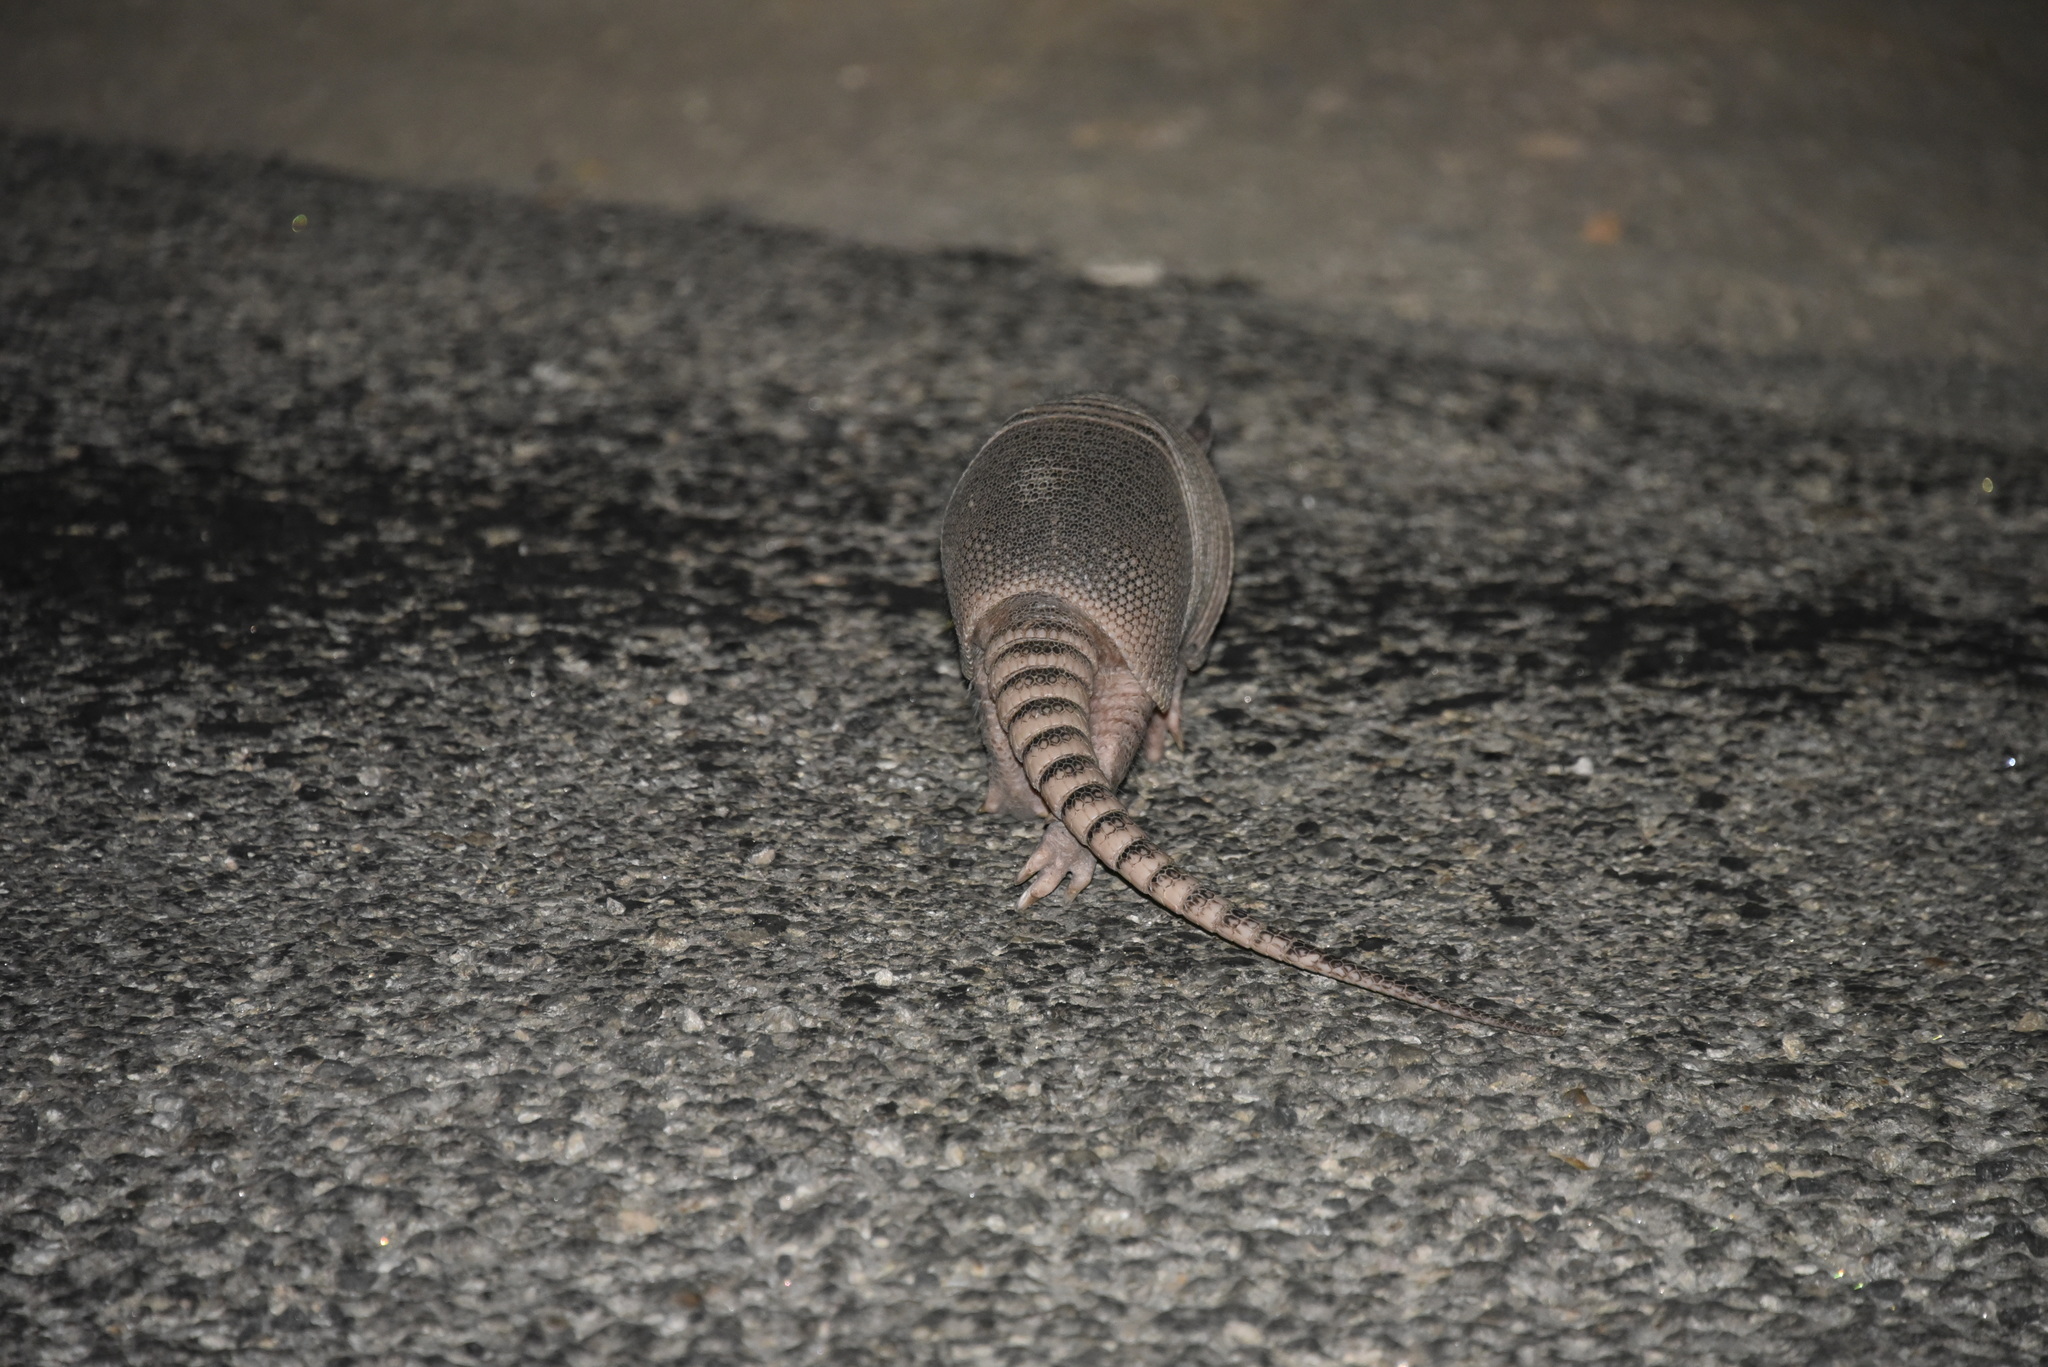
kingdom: Animalia
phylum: Chordata
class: Mammalia
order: Cingulata
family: Dasypodidae
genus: Dasypus
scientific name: Dasypus novemcinctus
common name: Nine-banded armadillo
